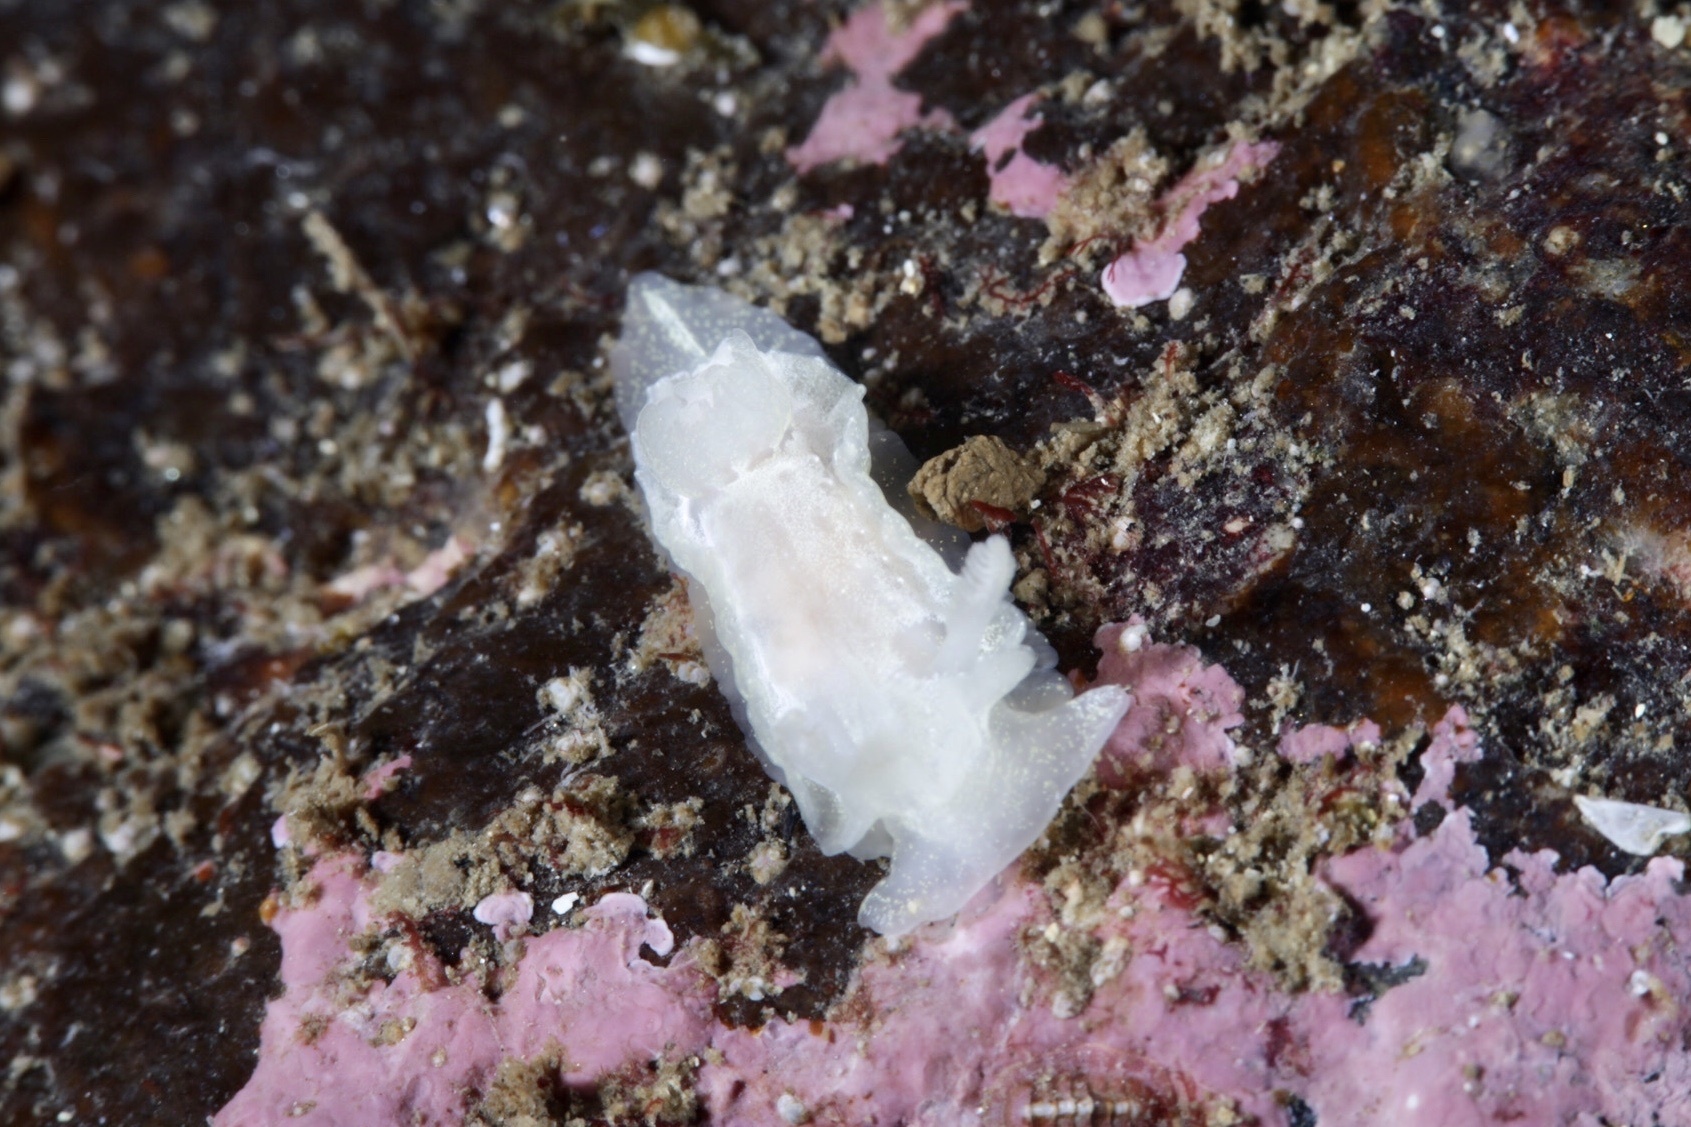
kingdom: Animalia
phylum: Mollusca
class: Gastropoda
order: Nudibranchia
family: Goniodorididae
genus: Okenia
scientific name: Okenia
